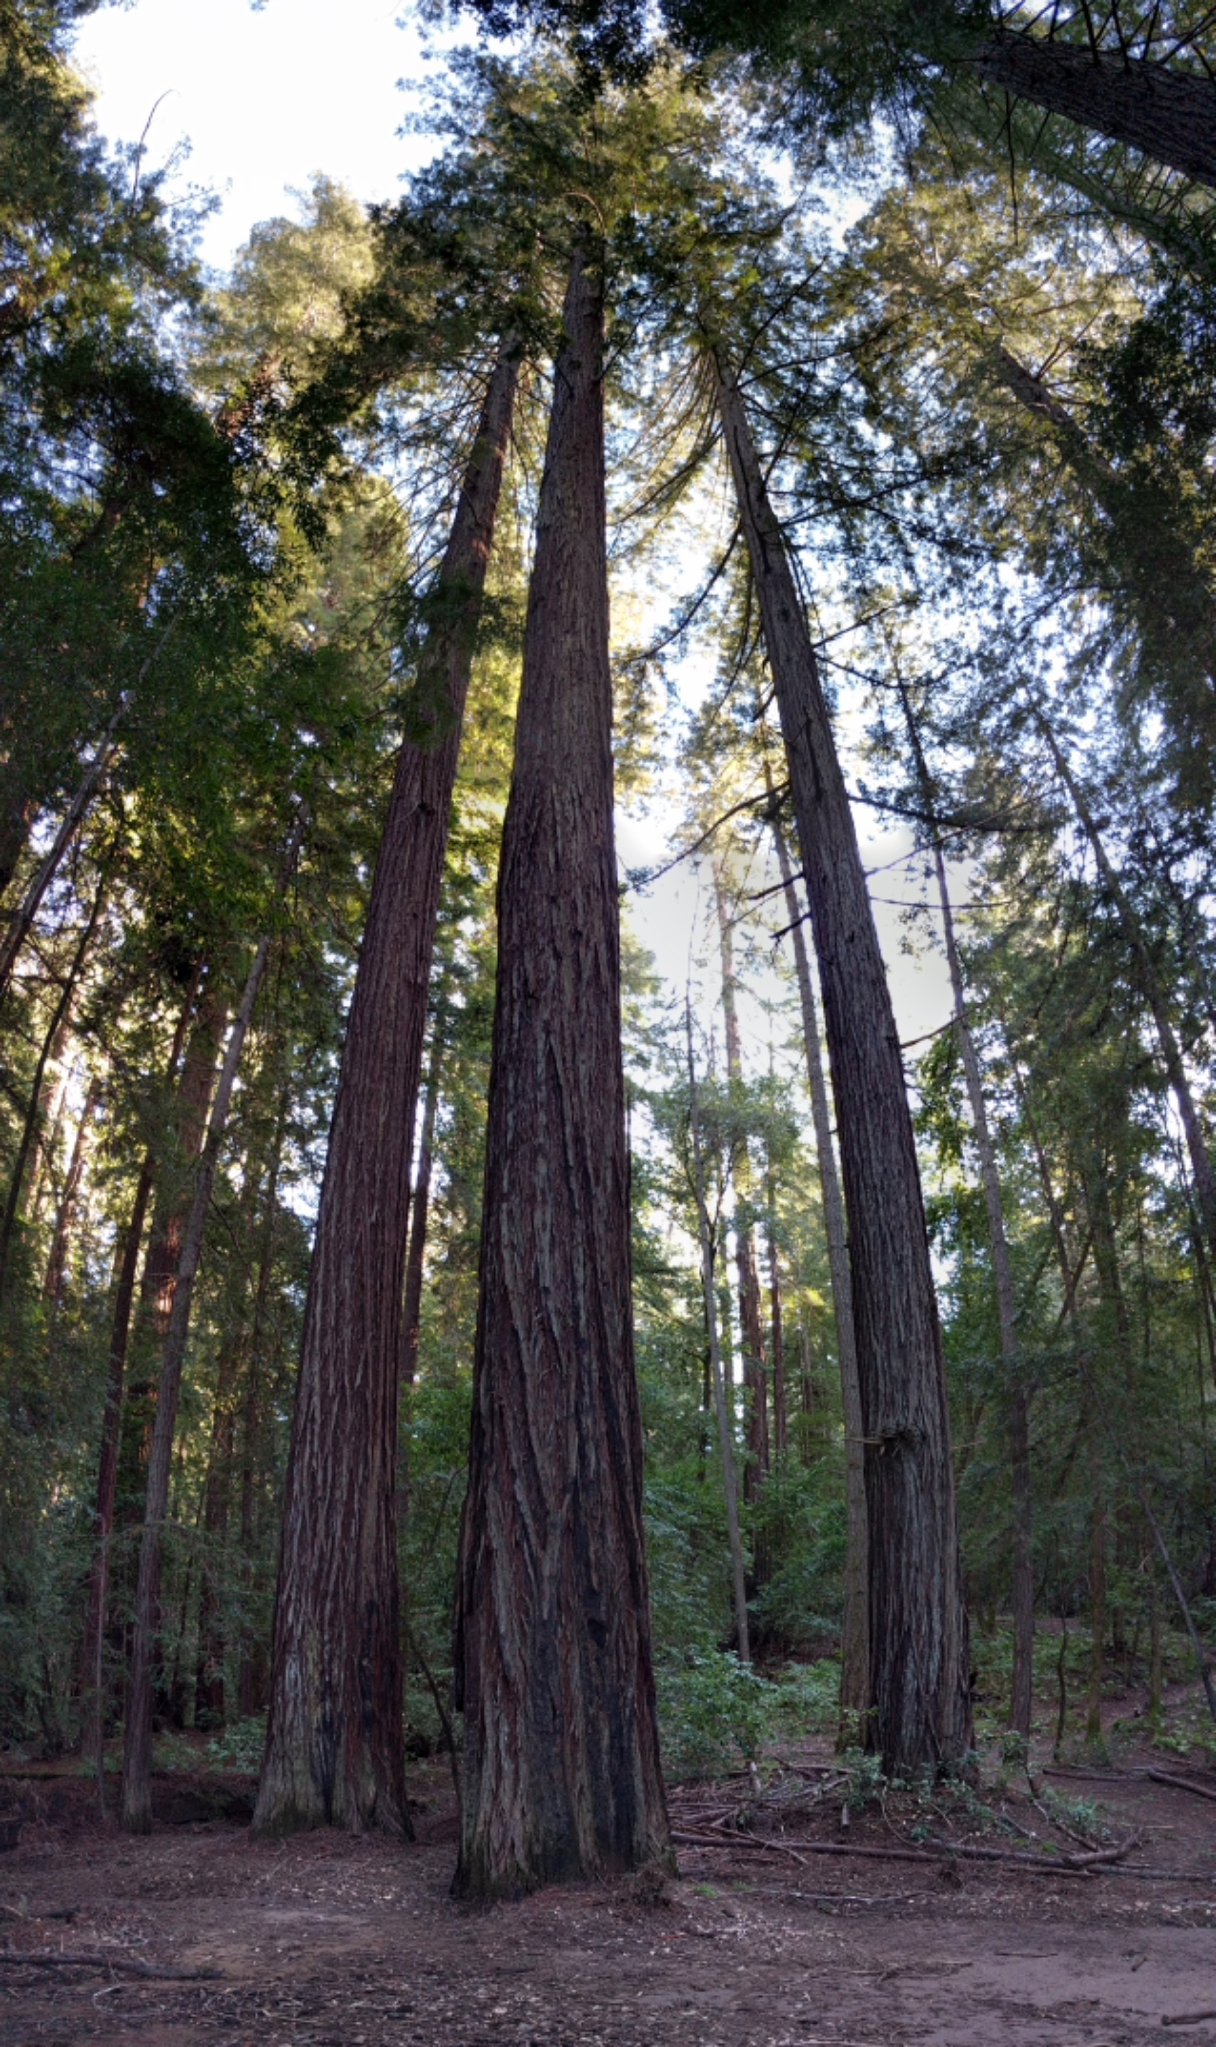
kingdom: Plantae
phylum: Tracheophyta
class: Pinopsida
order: Pinales
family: Cupressaceae
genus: Sequoia
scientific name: Sequoia sempervirens
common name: Coast redwood
